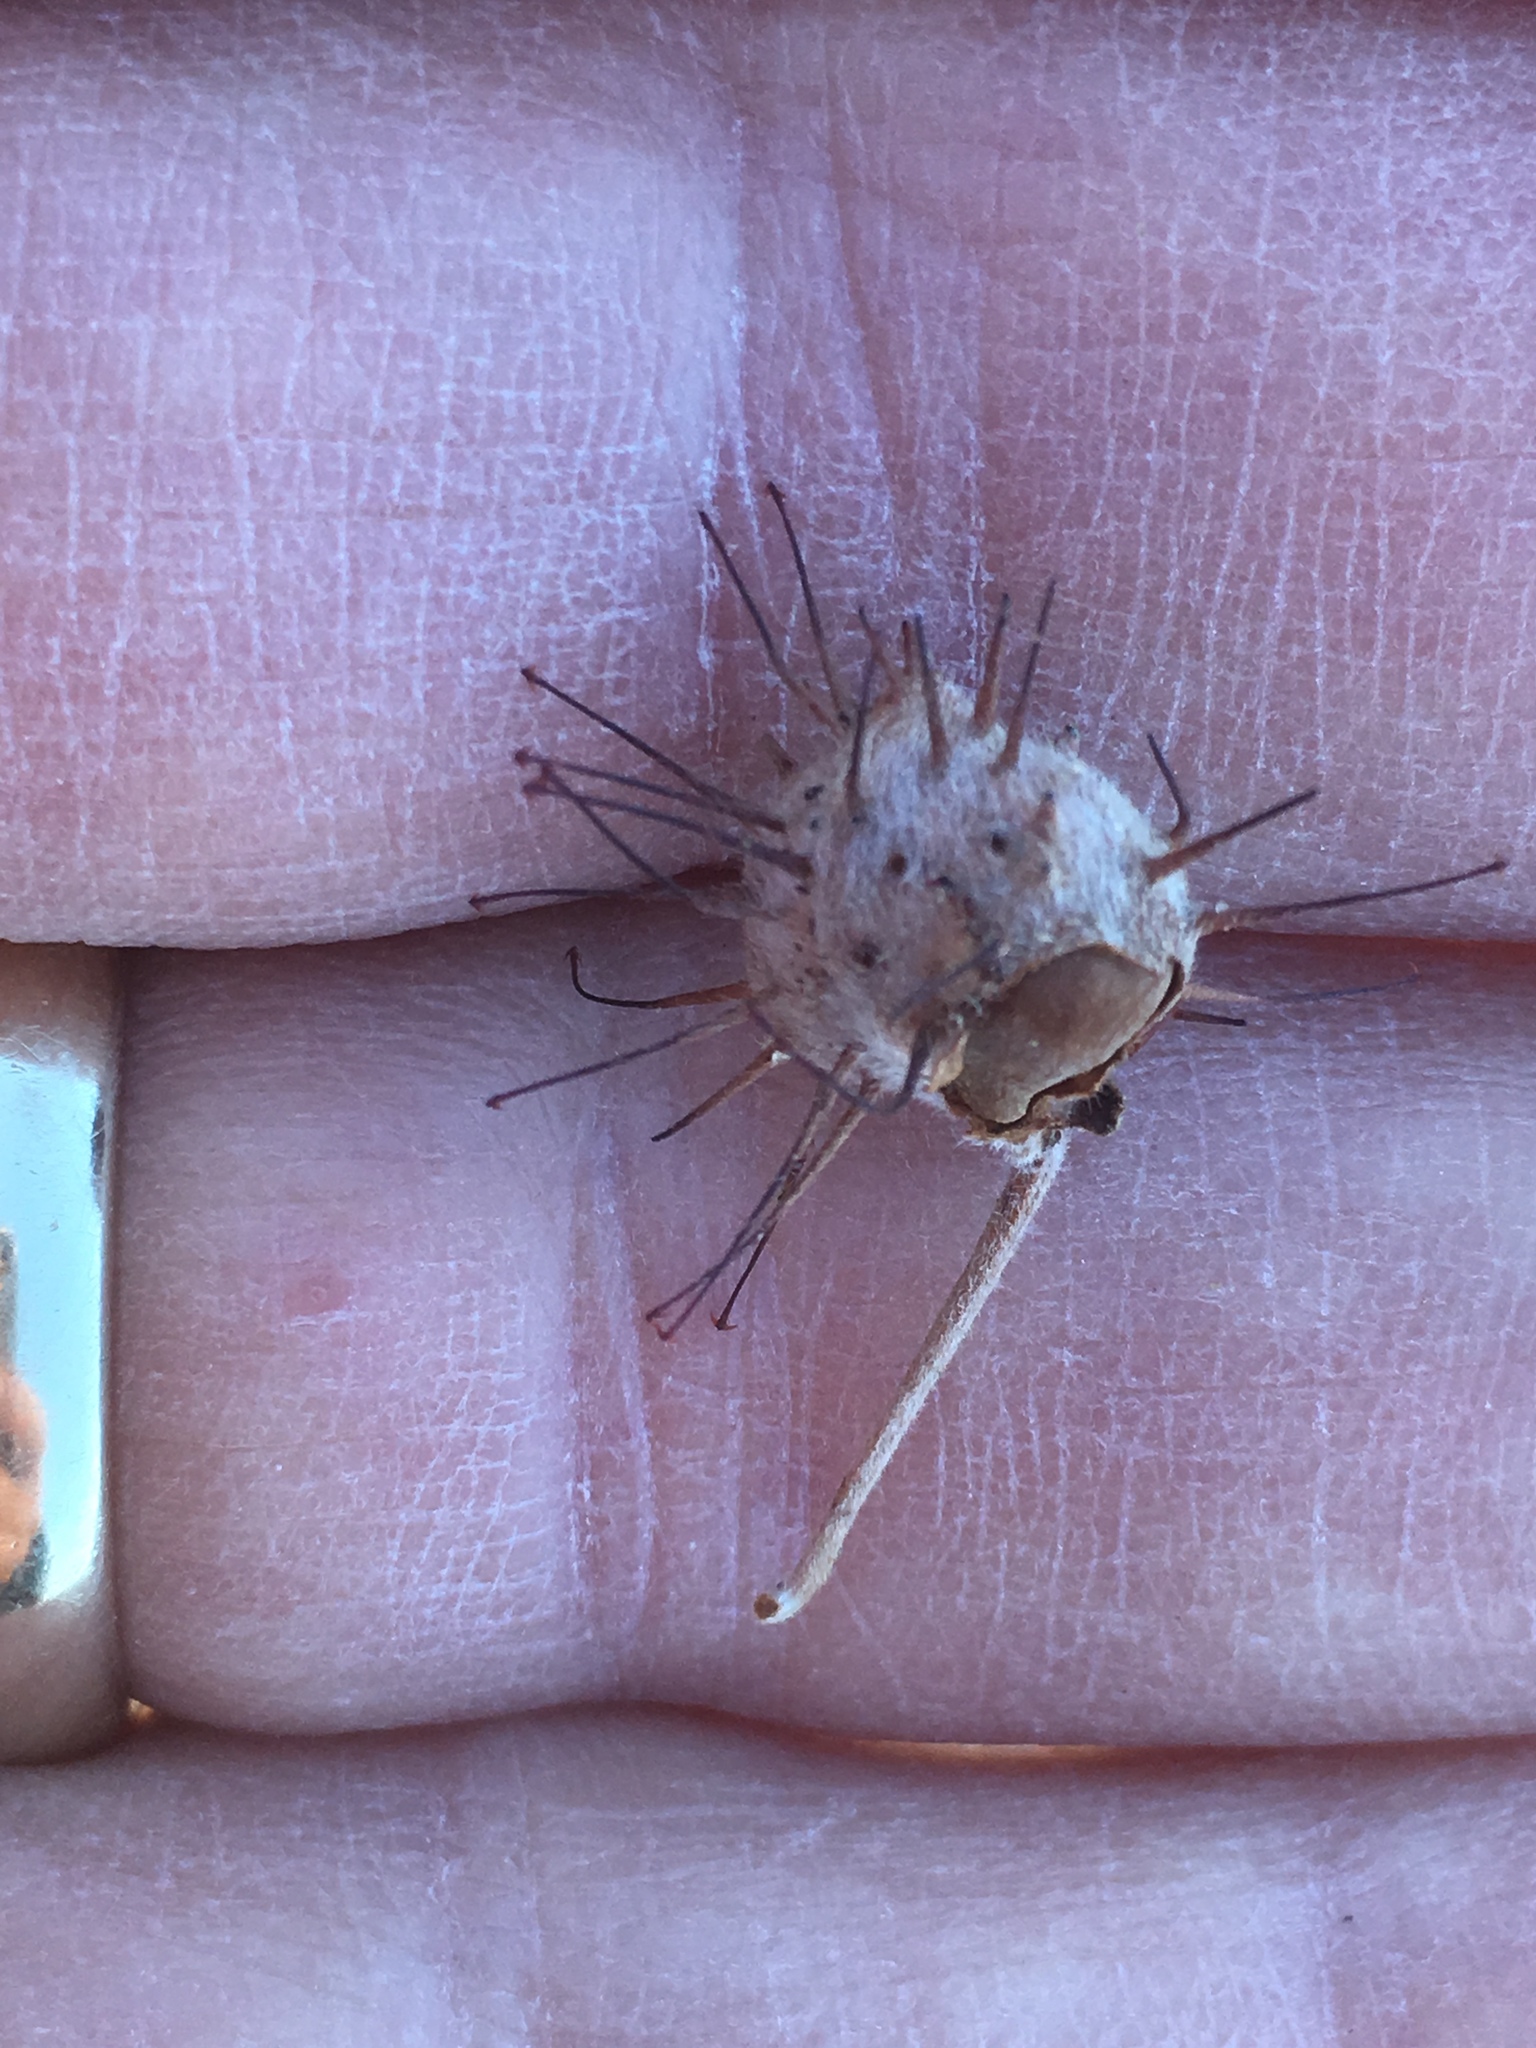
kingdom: Plantae
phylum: Tracheophyta
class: Magnoliopsida
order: Zygophyllales
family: Krameriaceae
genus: Krameria
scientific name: Krameria bicolor
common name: White ratany
